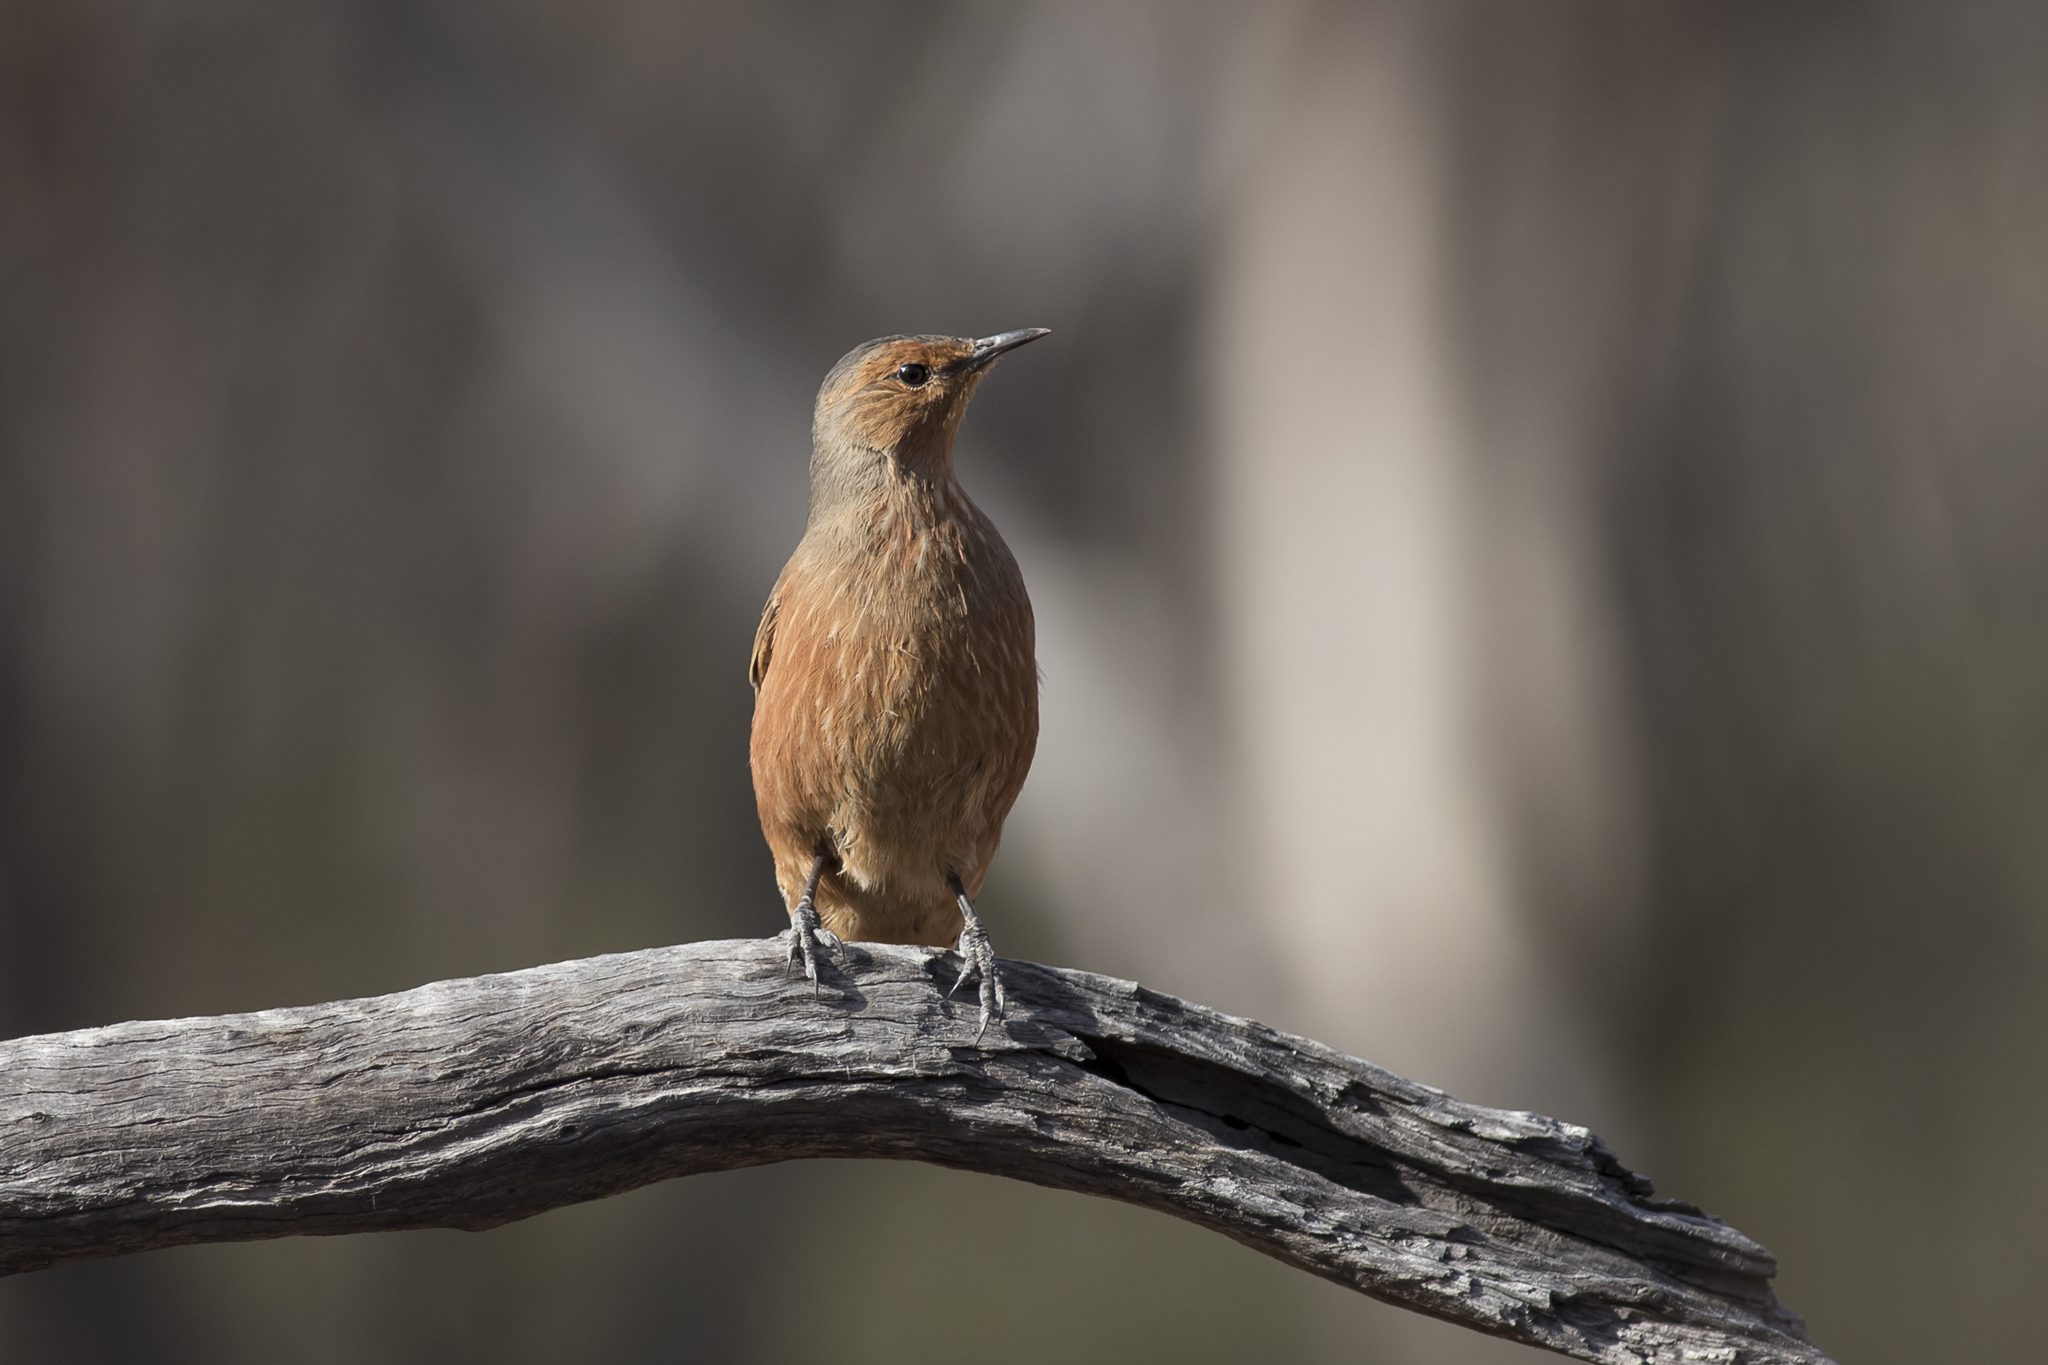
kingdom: Animalia
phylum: Chordata
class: Aves
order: Passeriformes
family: Climacteridae
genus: Climacteris
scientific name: Climacteris rufus
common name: Rufous treecreeper
